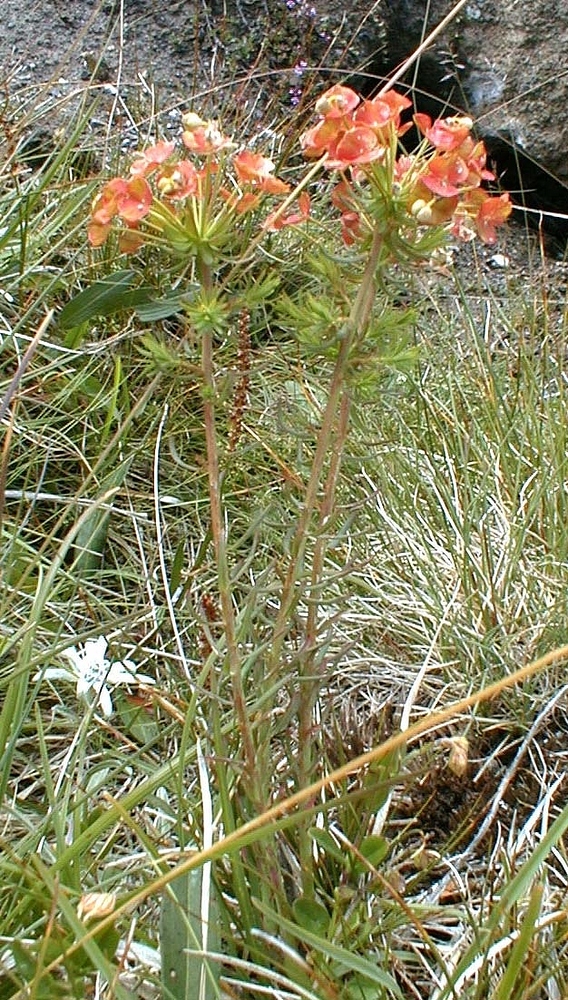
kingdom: Plantae
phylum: Tracheophyta
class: Magnoliopsida
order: Malpighiales
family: Euphorbiaceae
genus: Euphorbia
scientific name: Euphorbia cyparissias
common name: Cypress spurge
